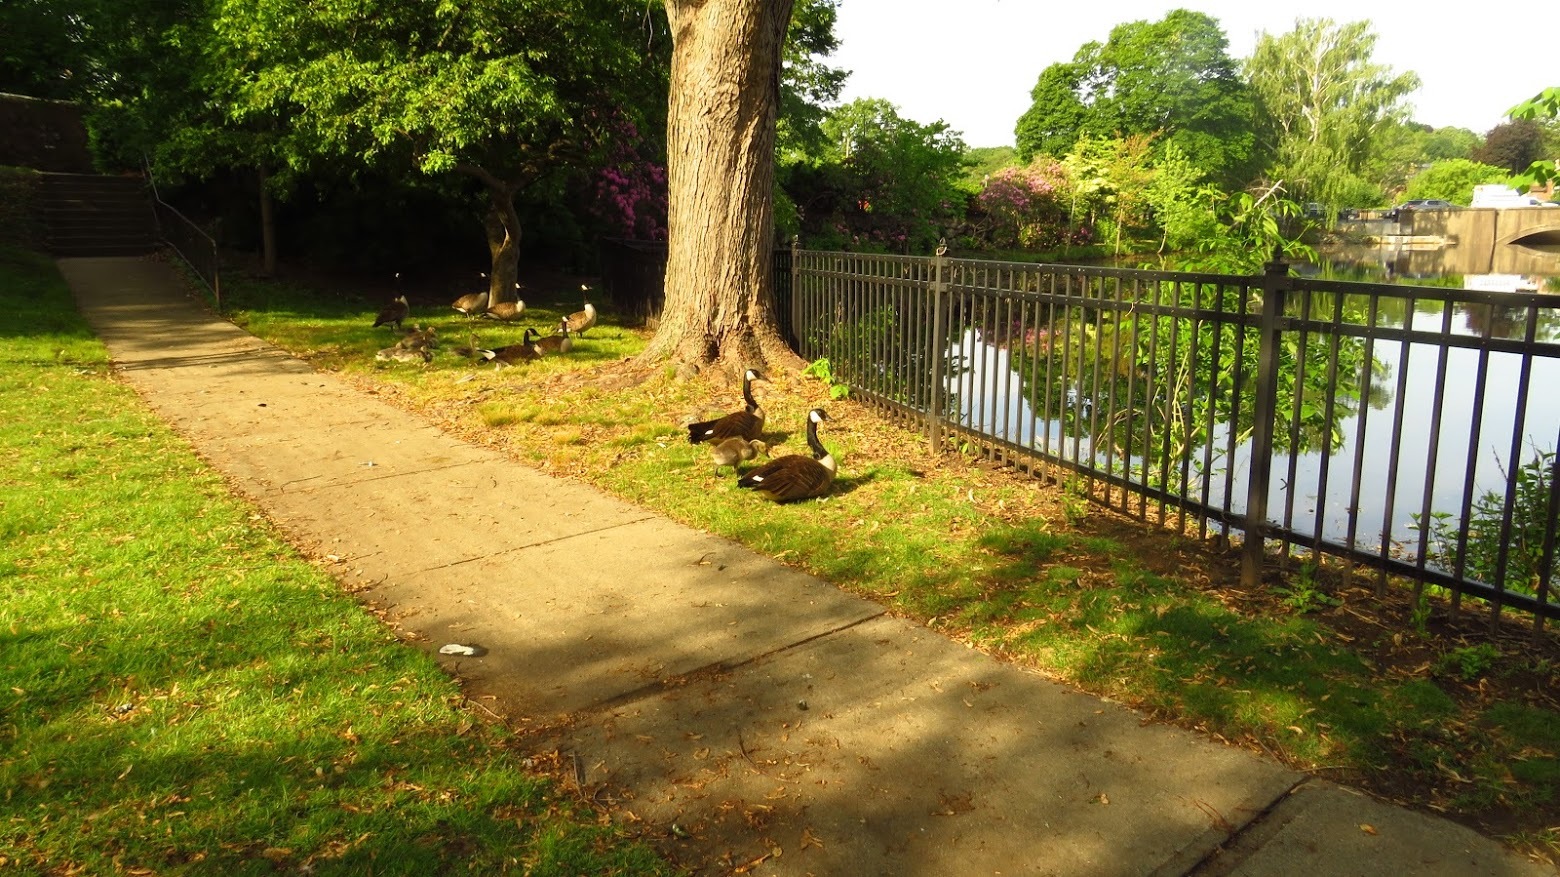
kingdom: Animalia
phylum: Chordata
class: Aves
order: Anseriformes
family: Anatidae
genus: Branta
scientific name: Branta canadensis
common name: Canada goose
